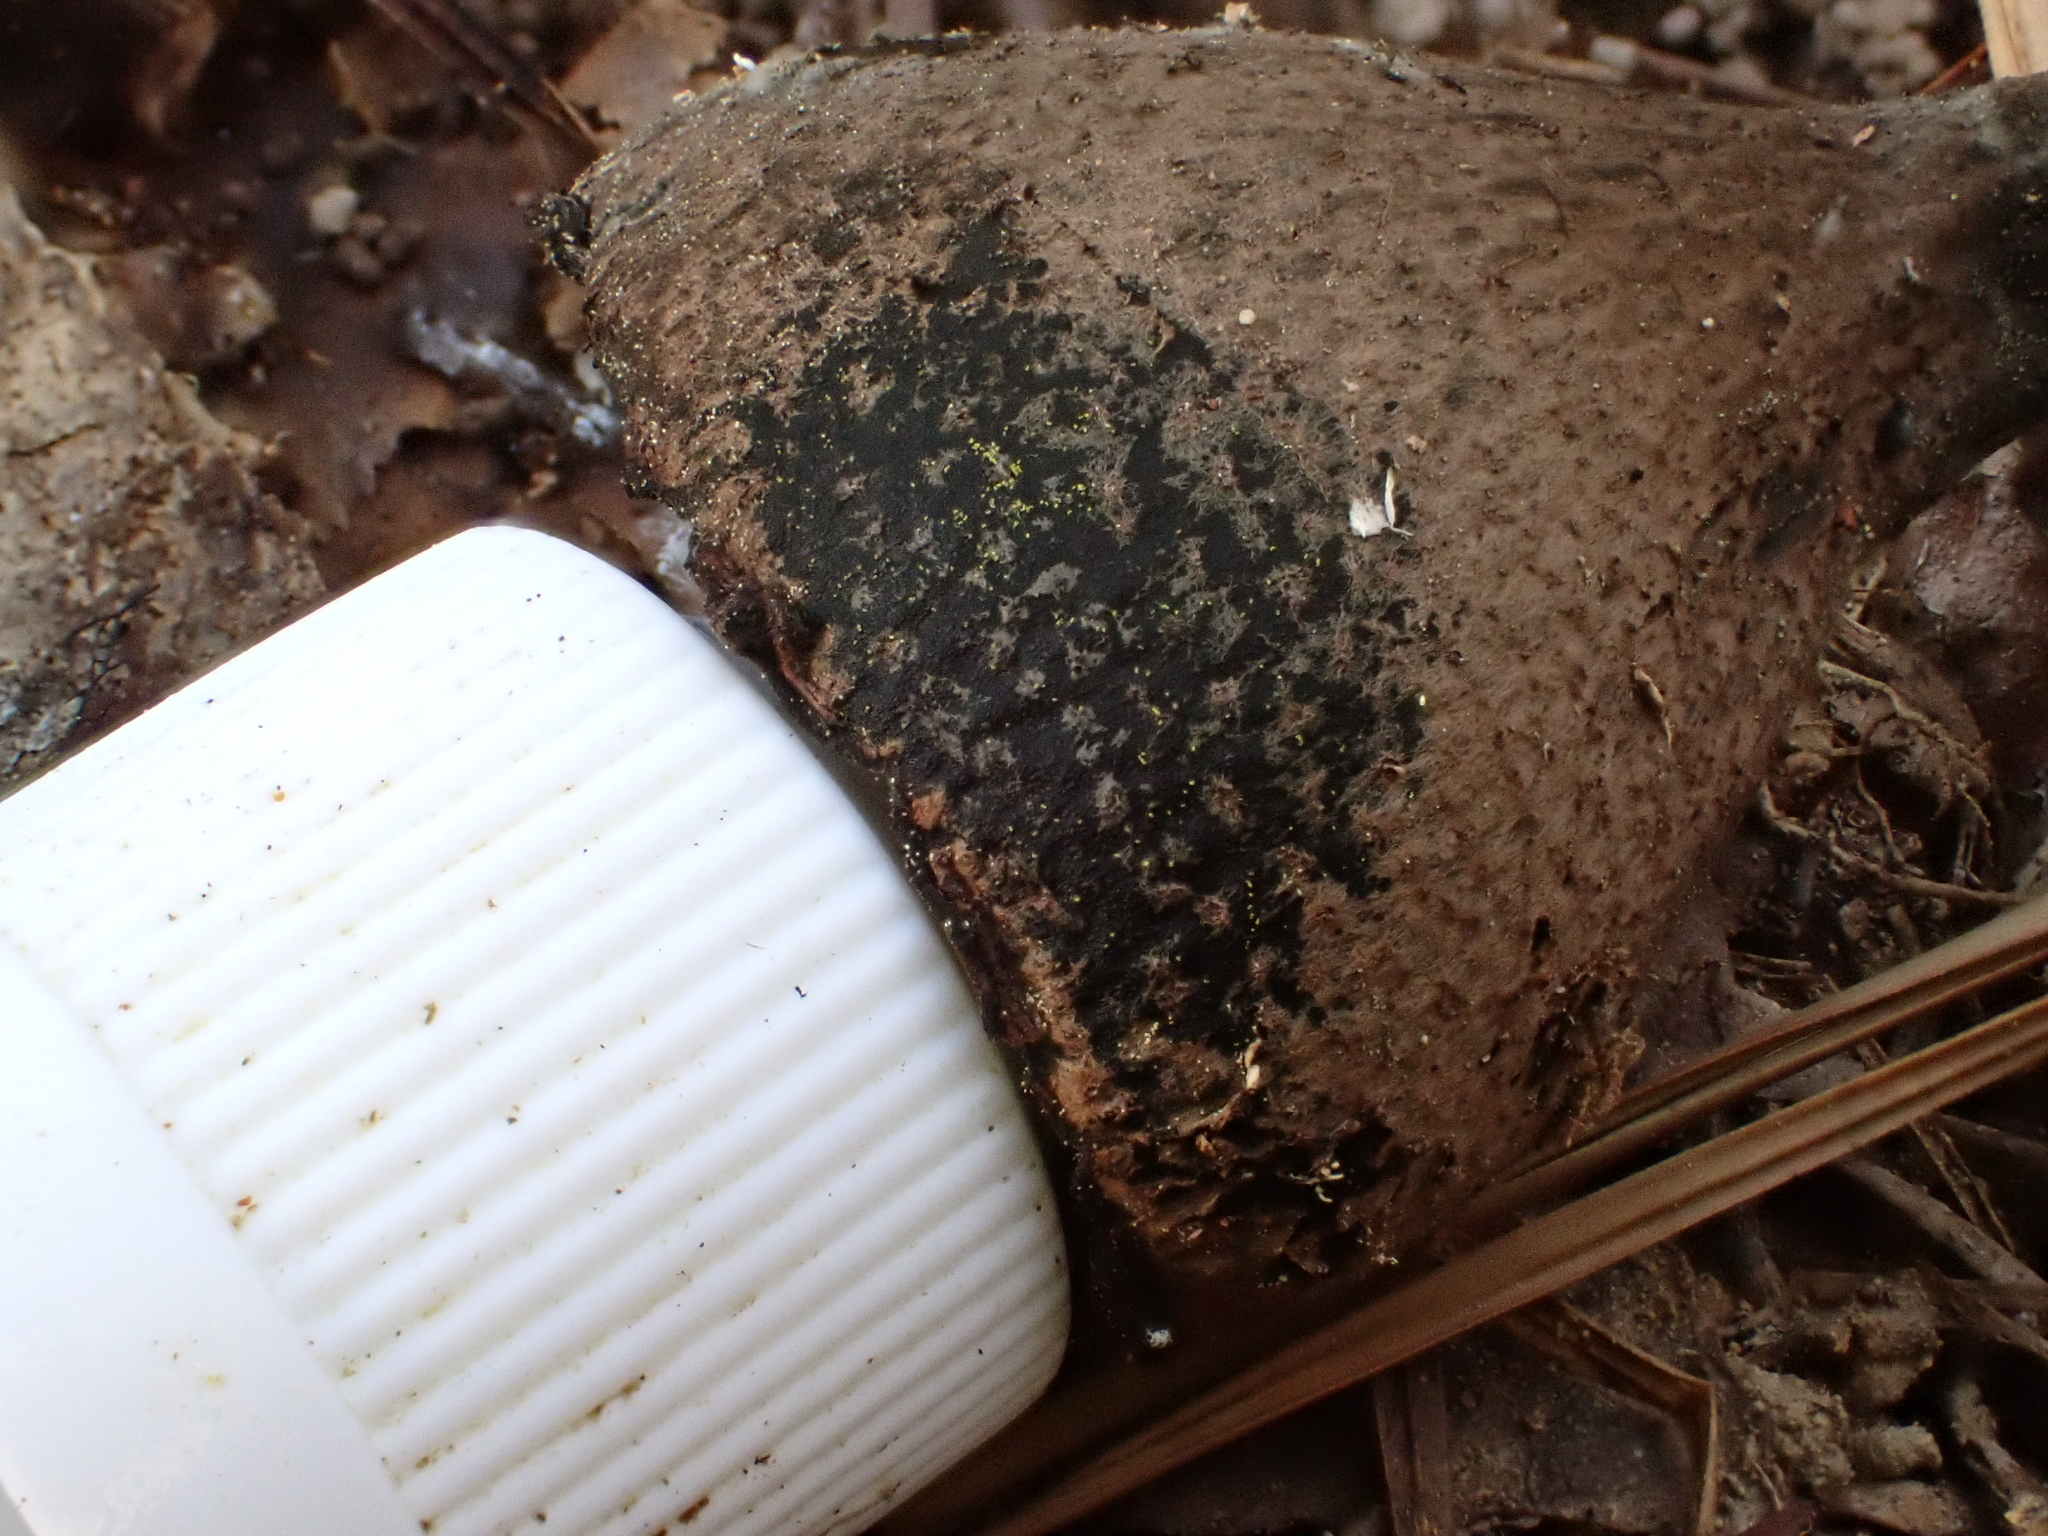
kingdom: Fungi
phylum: Ascomycota
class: Pezizomycetes
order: Pezizales
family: Sarcosomataceae
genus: Urnula
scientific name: Urnula craterium
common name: Devil's urn
